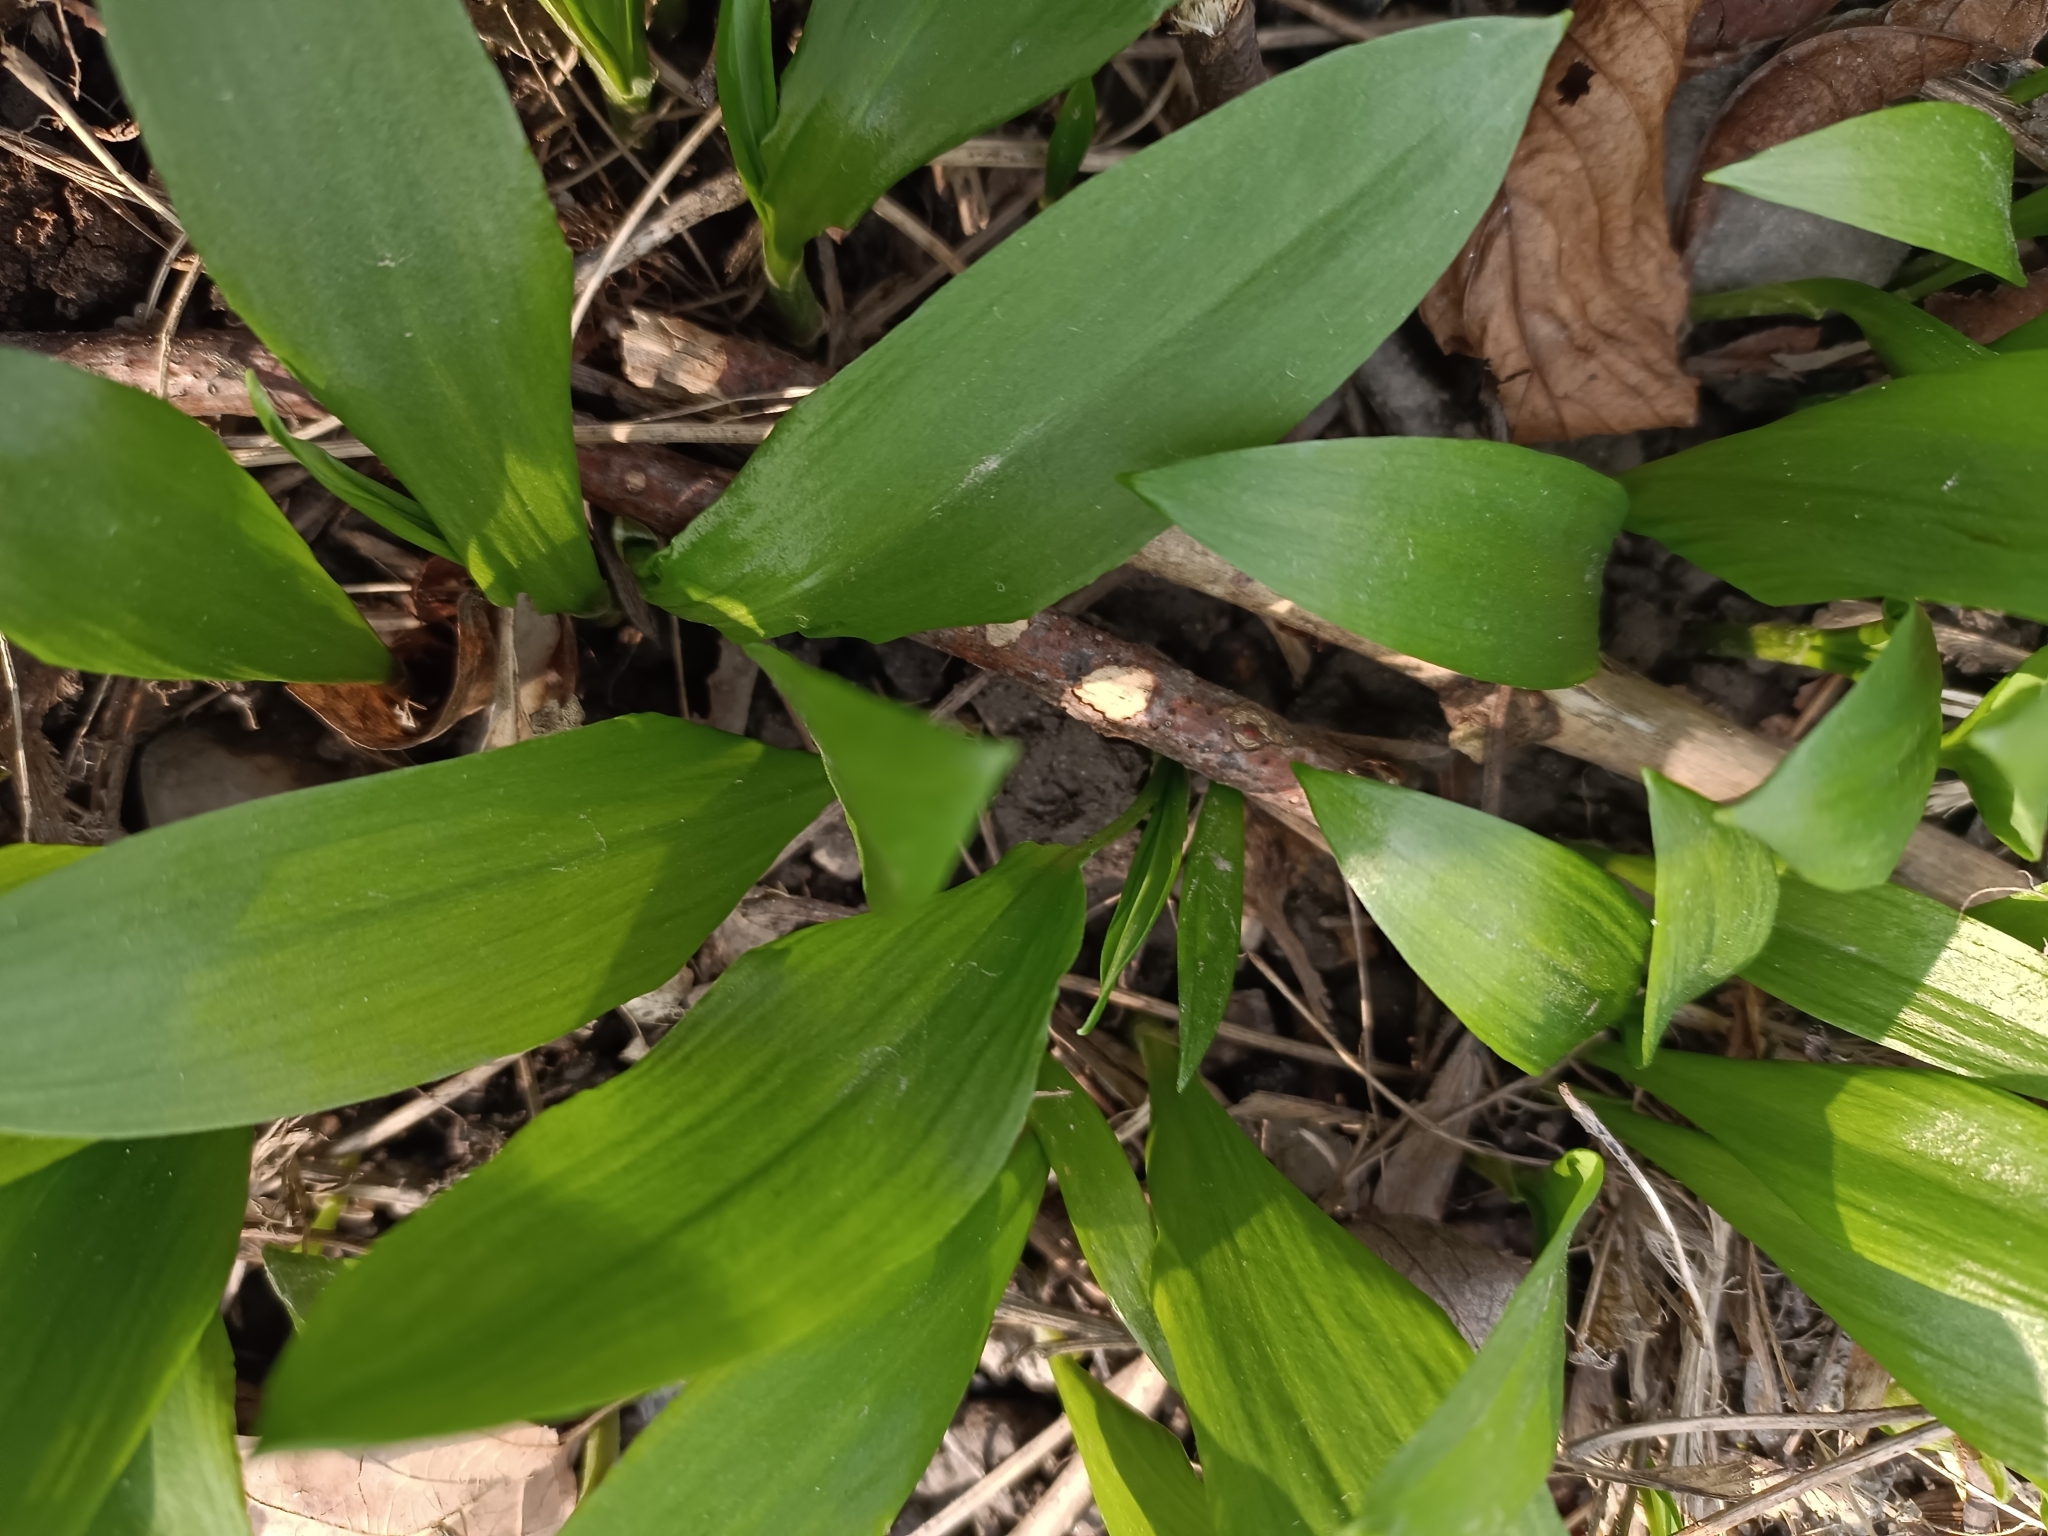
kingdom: Plantae
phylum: Tracheophyta
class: Liliopsida
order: Asparagales
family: Amaryllidaceae
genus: Allium
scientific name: Allium ursinum
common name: Ramsons
